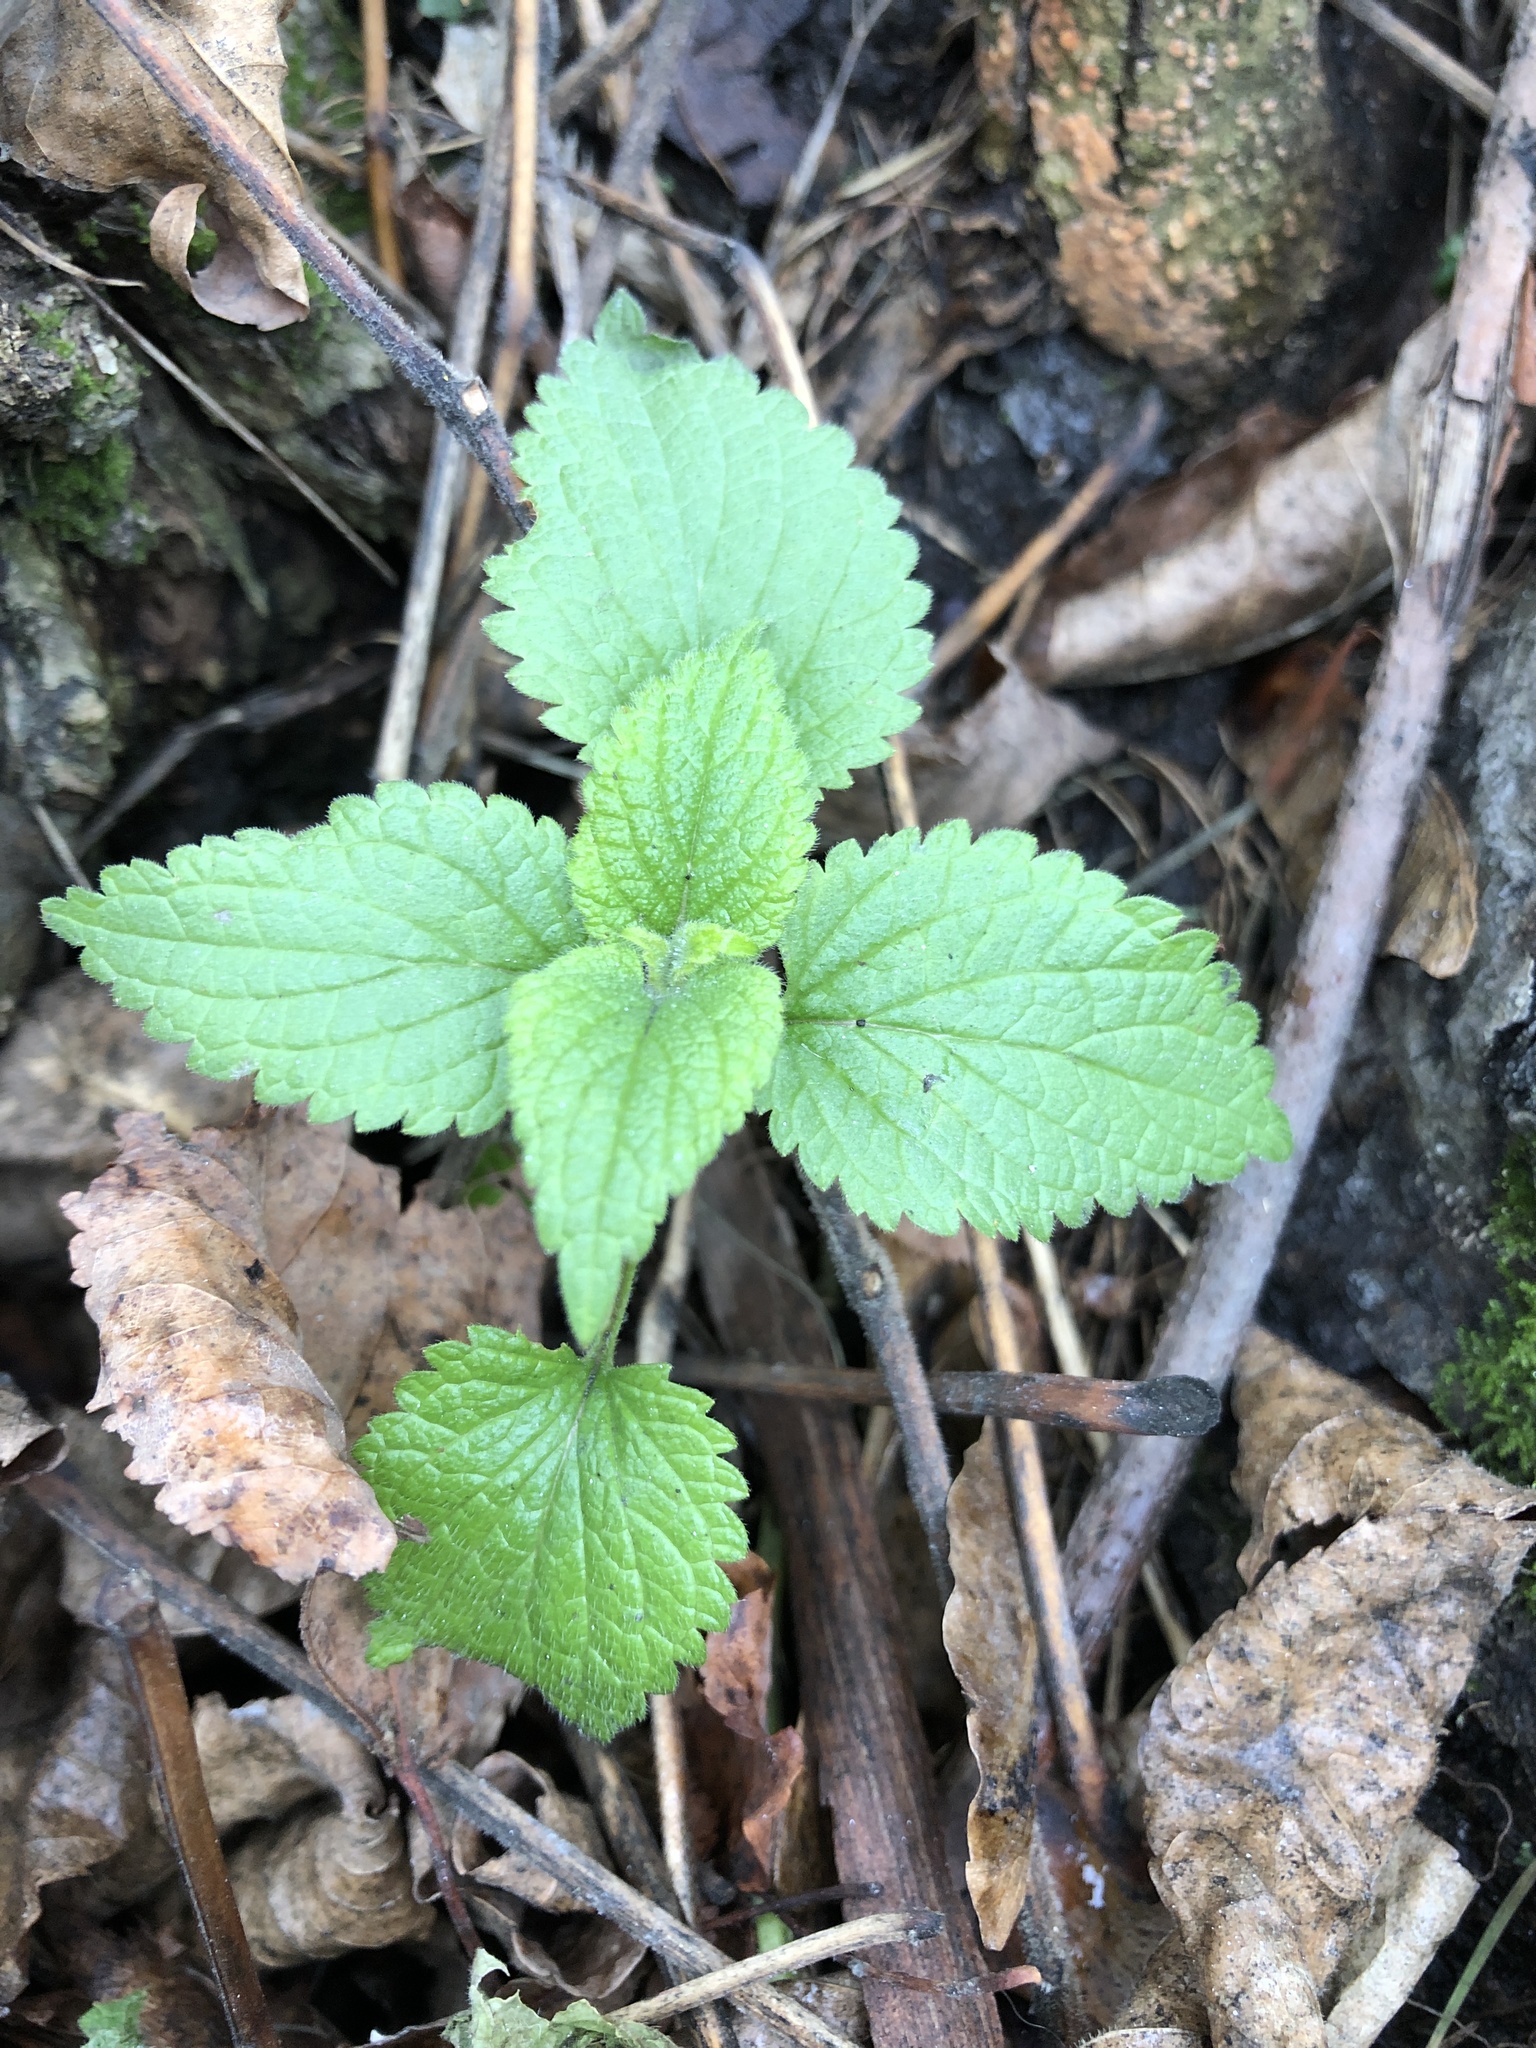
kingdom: Plantae
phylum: Tracheophyta
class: Magnoliopsida
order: Lamiales
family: Lamiaceae
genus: Lamium
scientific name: Lamium album
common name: White dead-nettle
